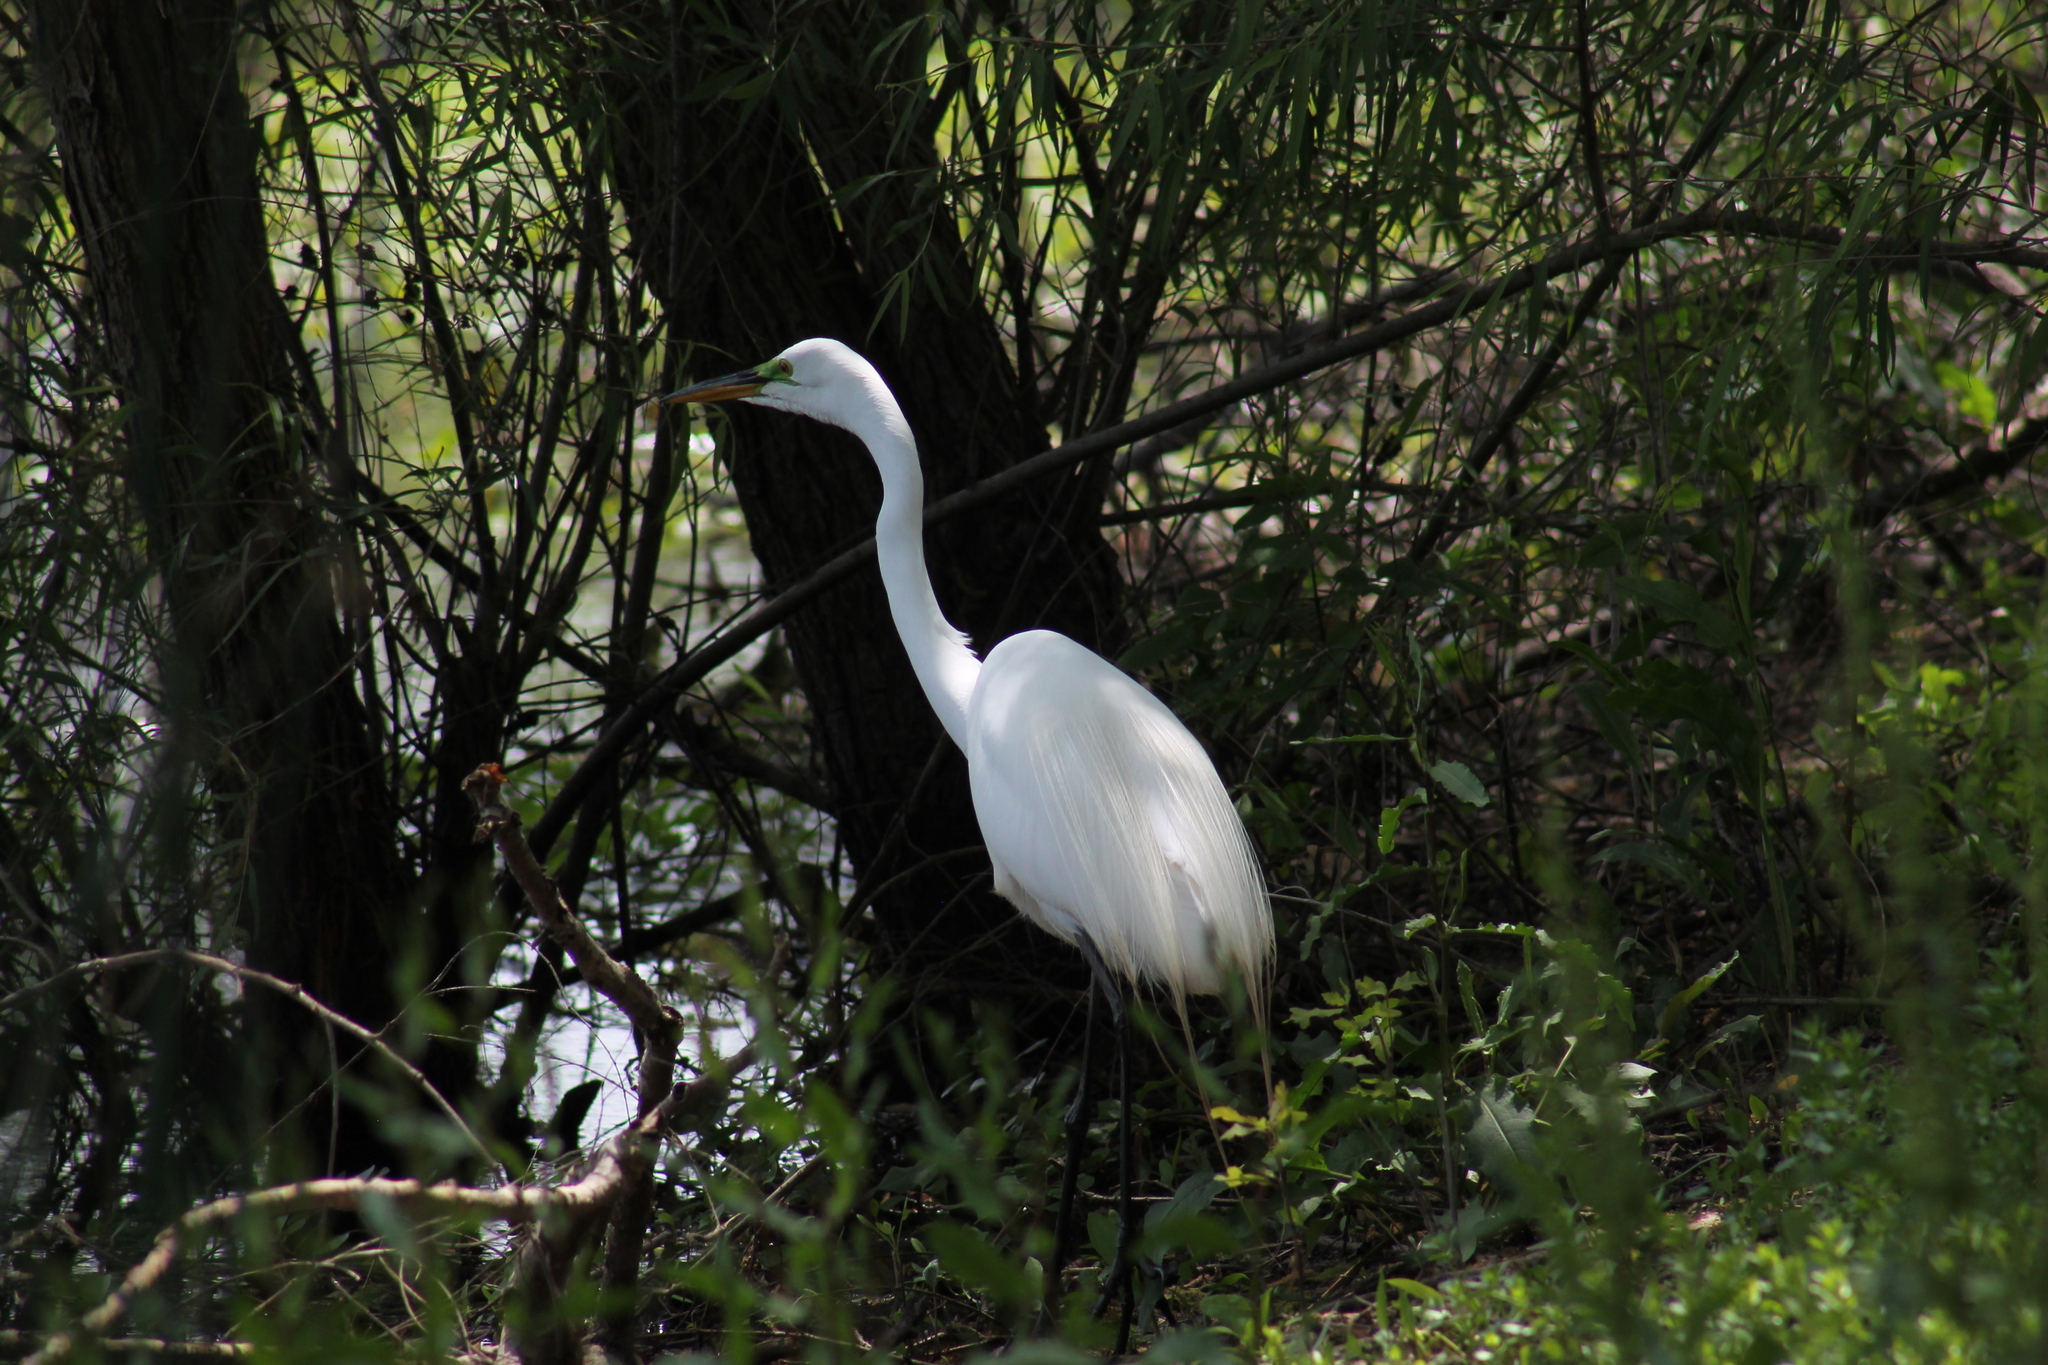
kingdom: Animalia
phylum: Chordata
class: Aves
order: Pelecaniformes
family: Ardeidae
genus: Ardea
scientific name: Ardea alba
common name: Great egret
